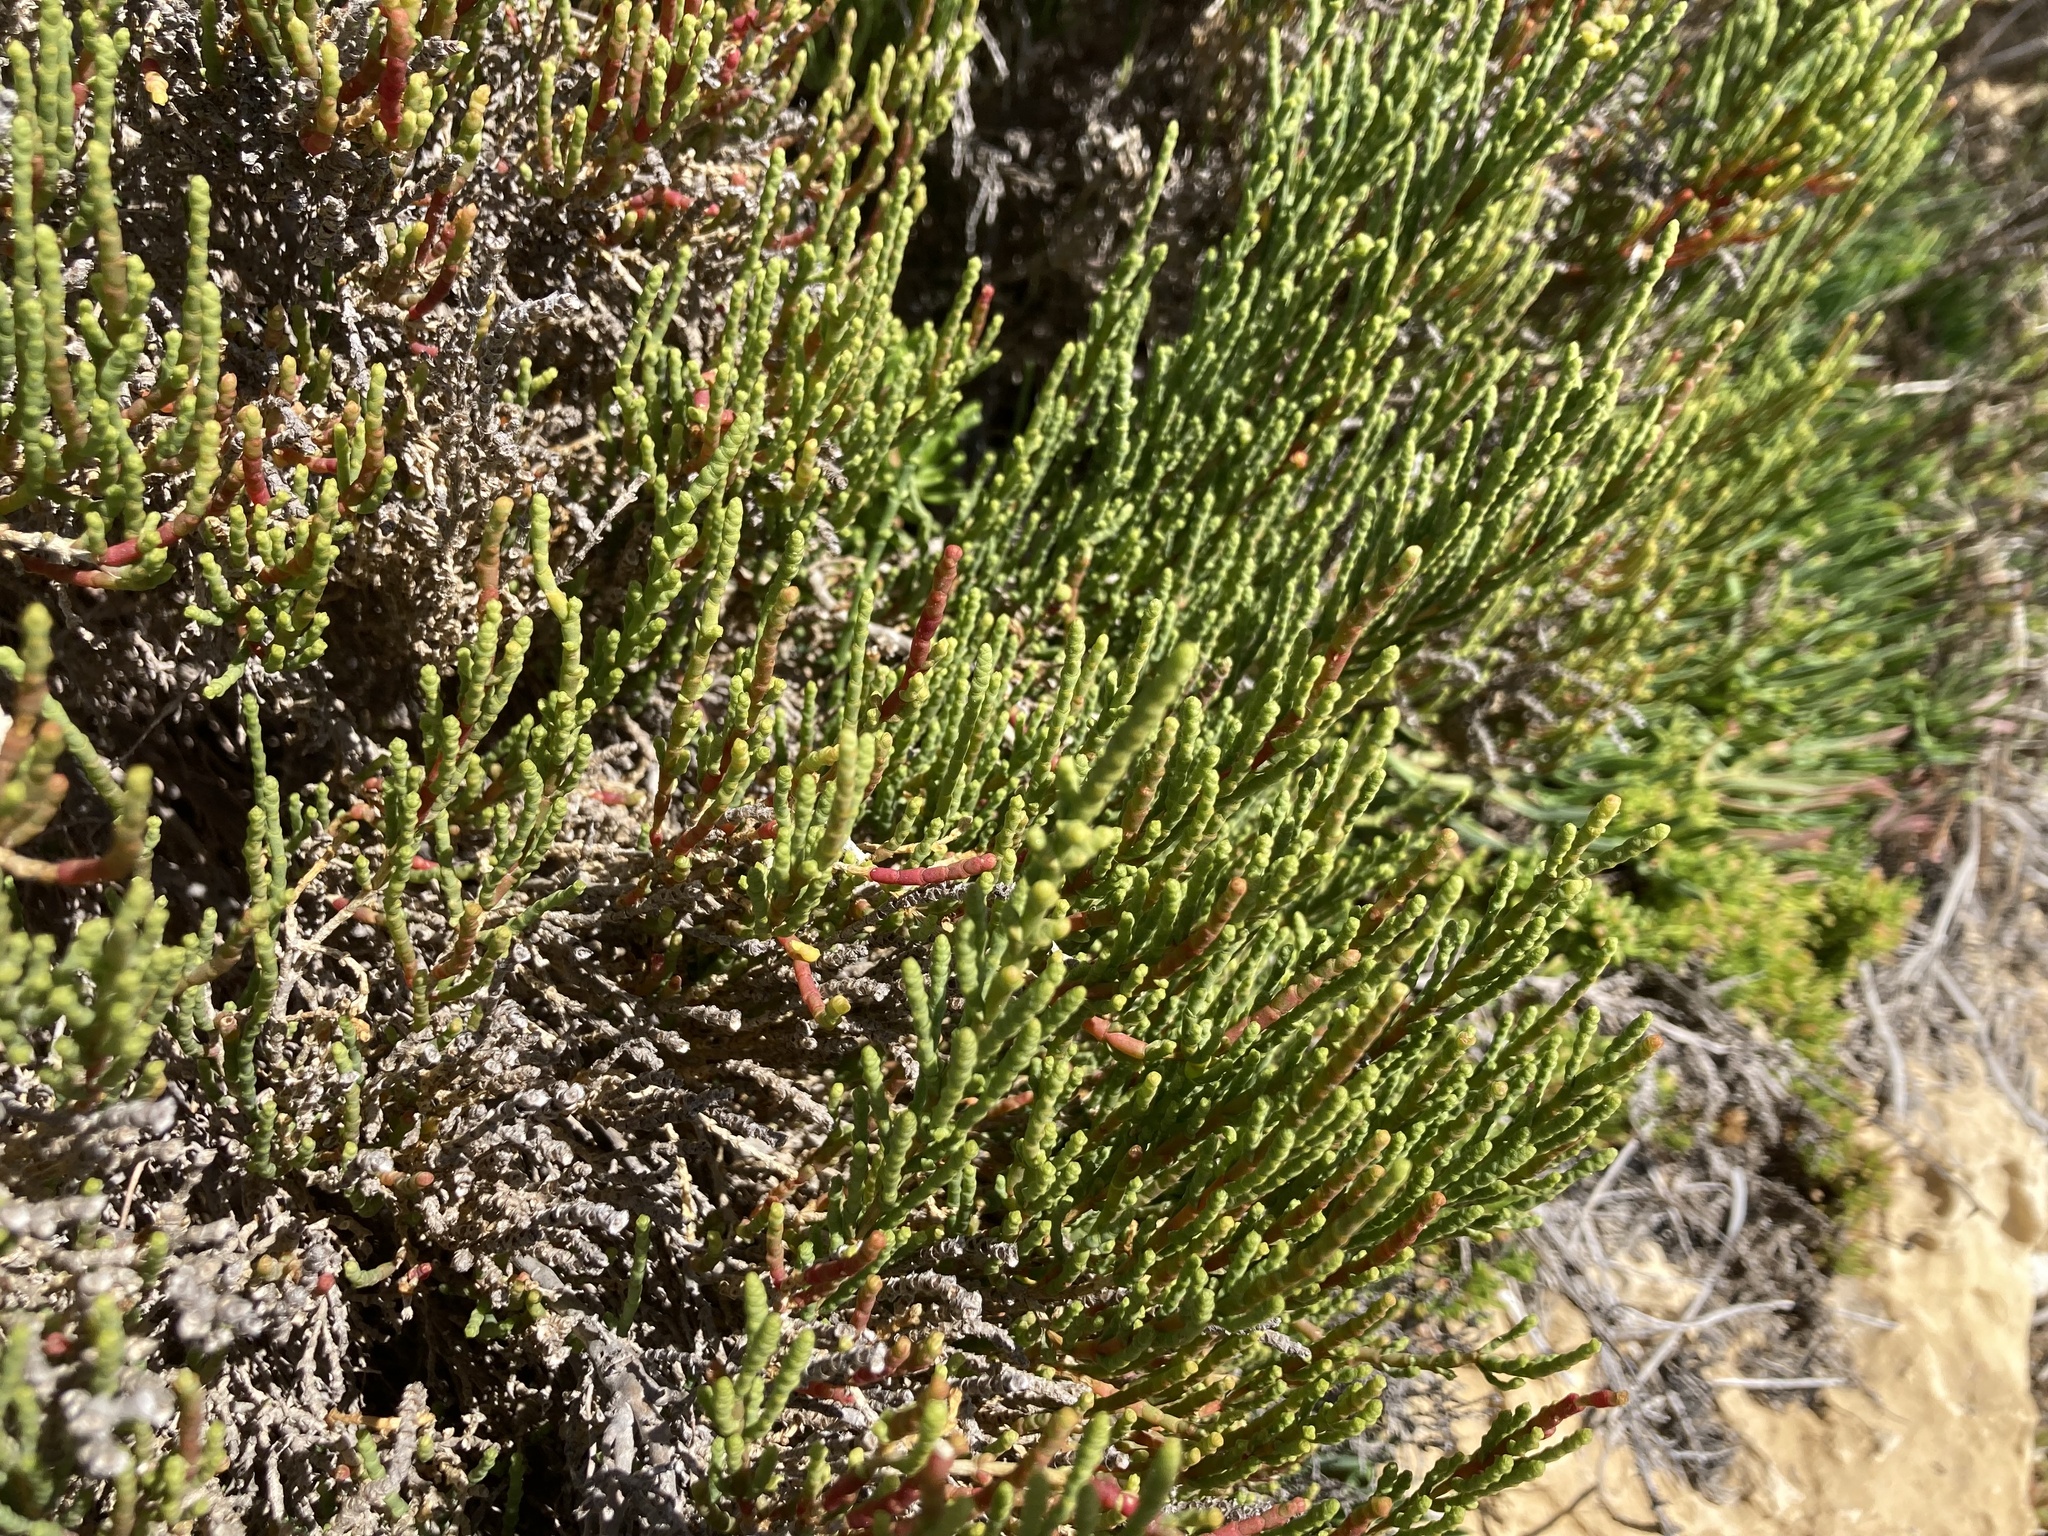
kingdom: Plantae
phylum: Tracheophyta
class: Magnoliopsida
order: Caryophyllales
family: Amaranthaceae
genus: Arthrocaulon
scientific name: Arthrocaulon macrostachyum
